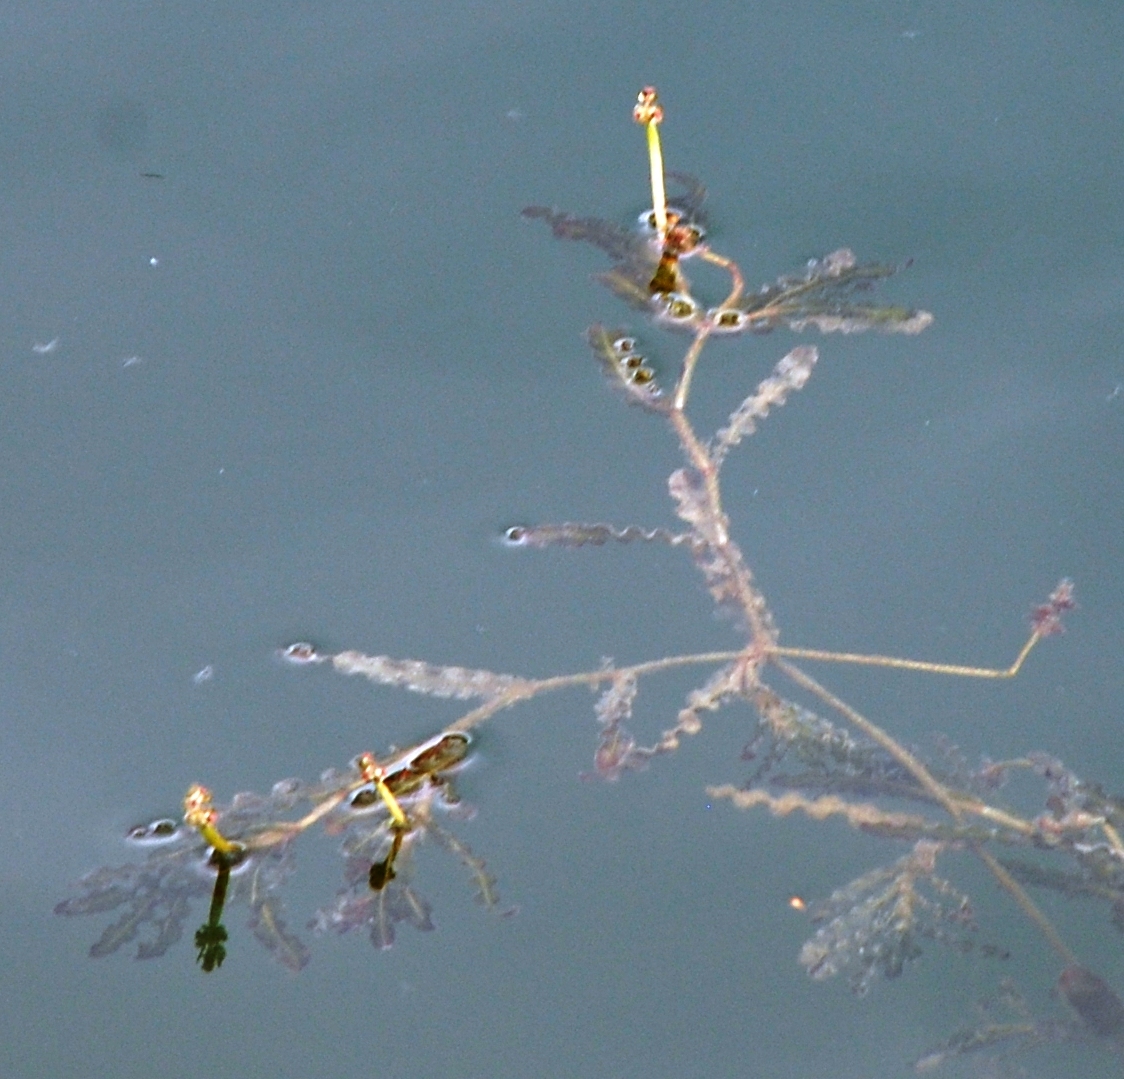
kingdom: Plantae
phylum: Tracheophyta
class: Liliopsida
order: Alismatales
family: Potamogetonaceae
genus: Potamogeton
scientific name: Potamogeton crispus
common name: Curled pondweed
